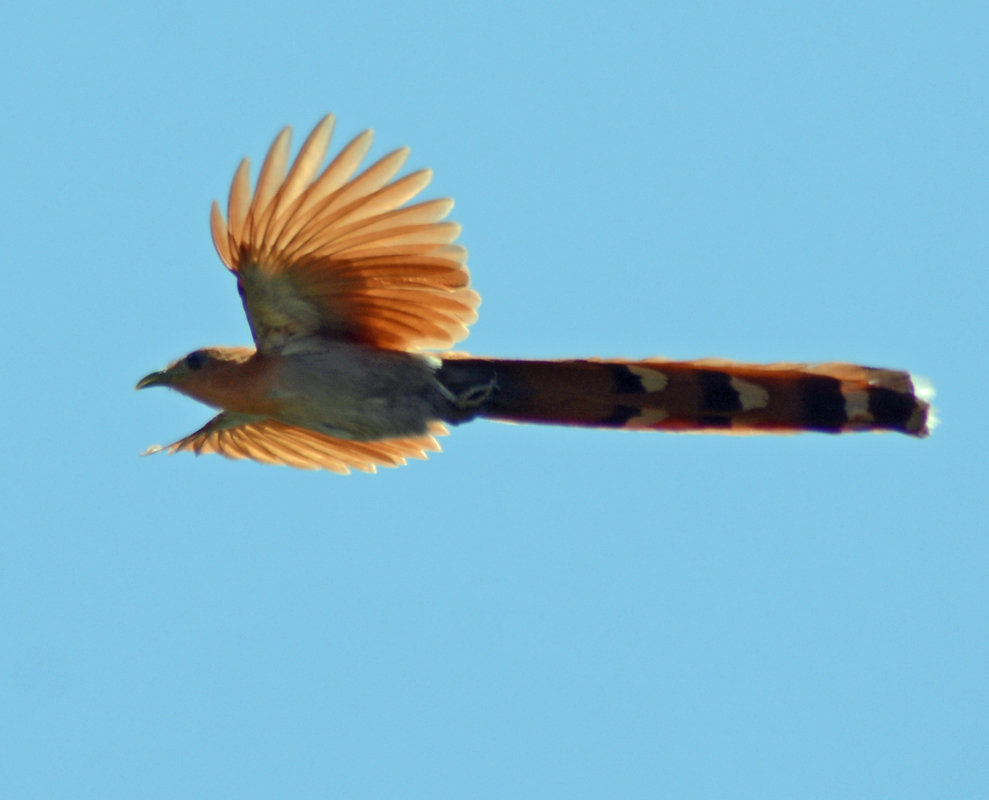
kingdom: Animalia
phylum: Chordata
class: Aves
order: Cuculiformes
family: Cuculidae
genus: Piaya
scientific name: Piaya cayana
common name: Squirrel cuckoo
